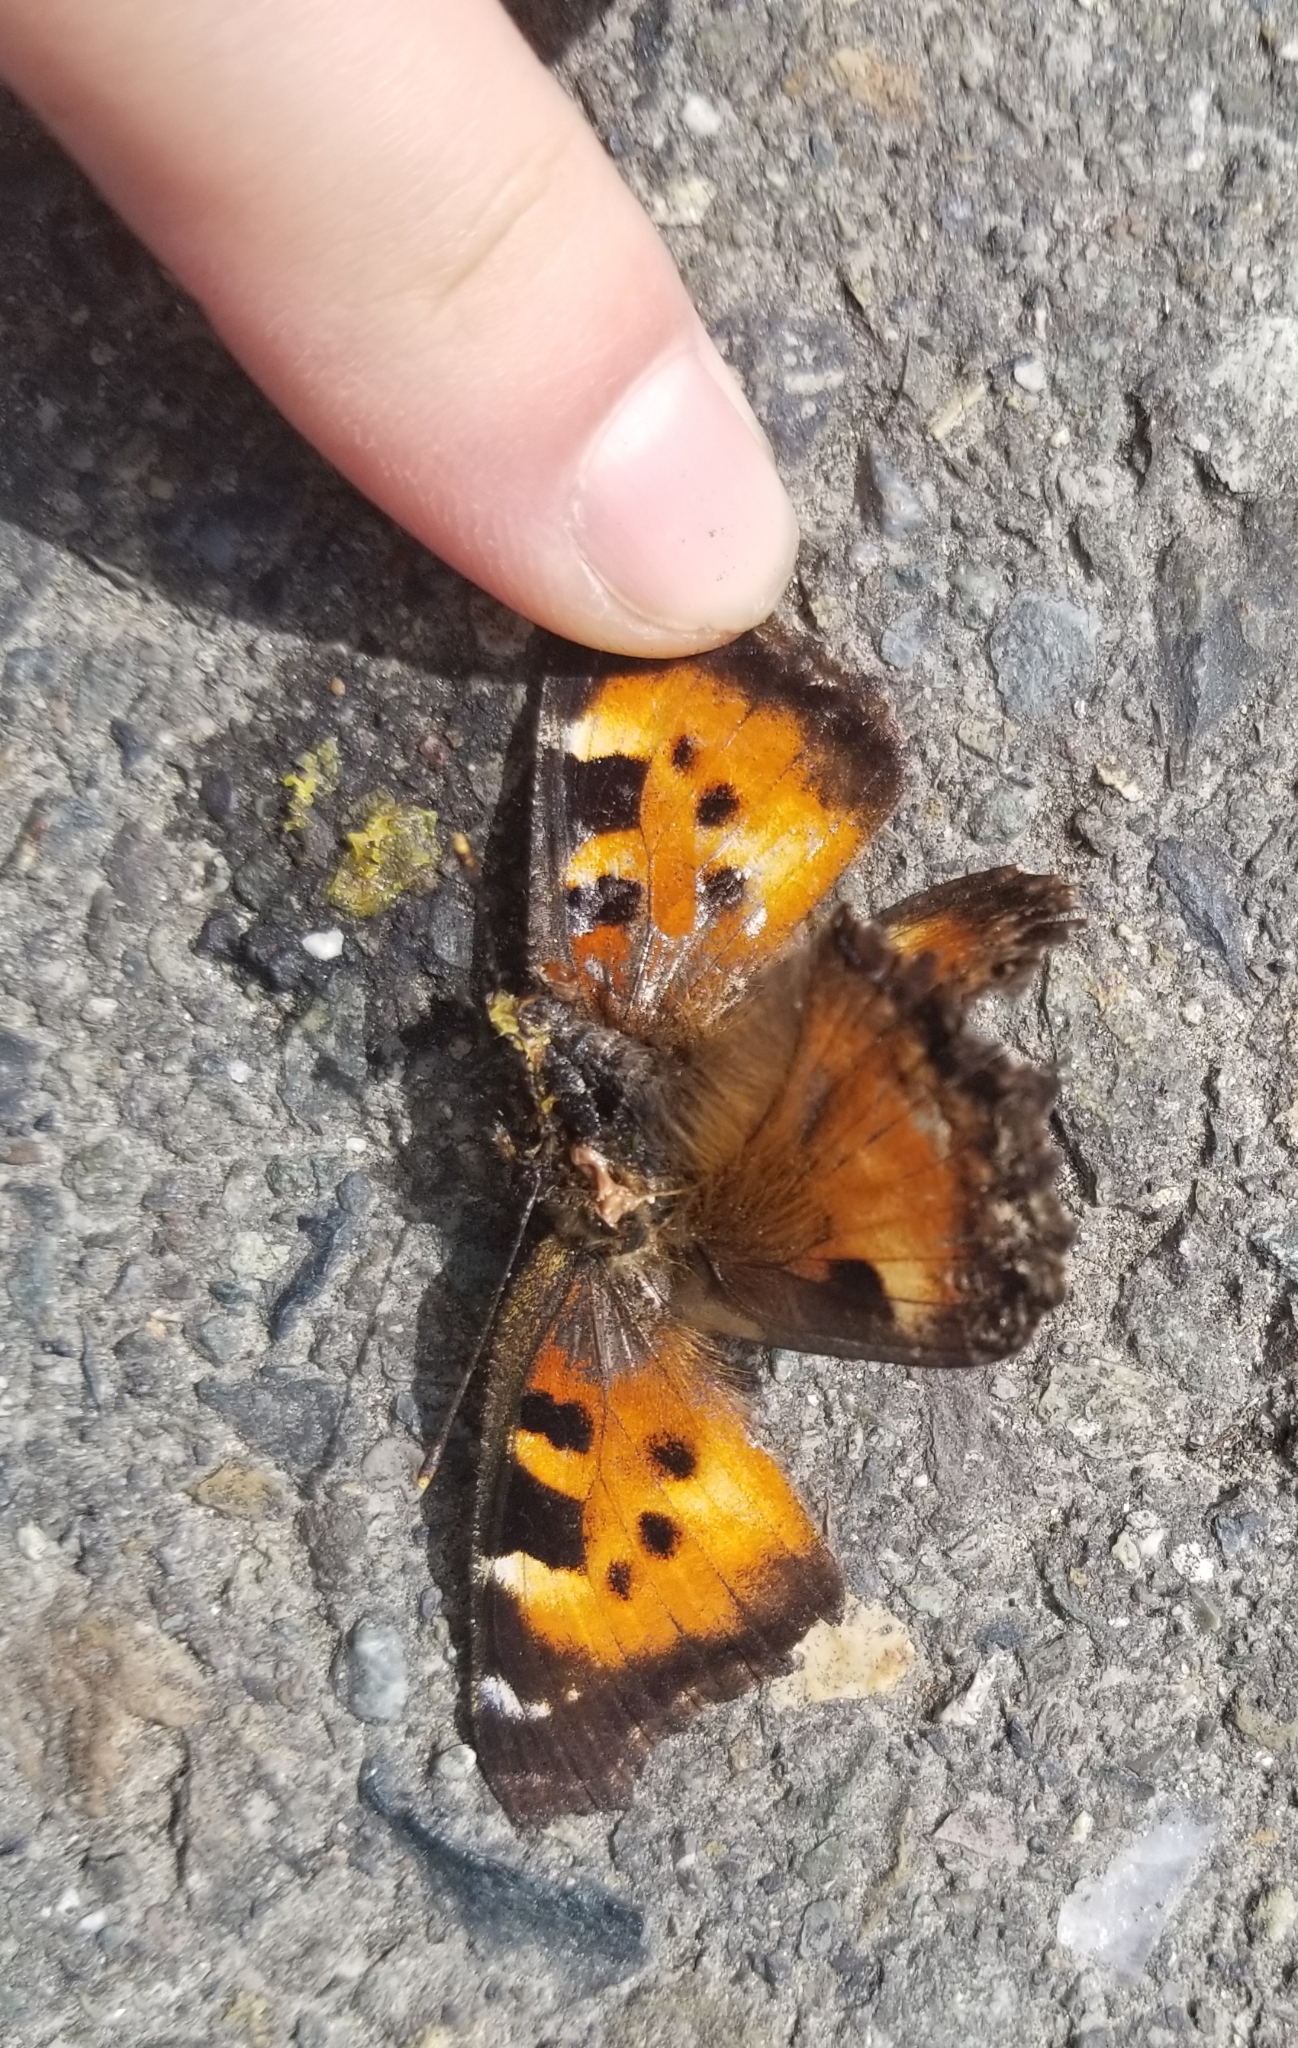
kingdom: Animalia
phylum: Arthropoda
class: Insecta
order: Lepidoptera
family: Nymphalidae
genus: Nymphalis
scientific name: Nymphalis californica
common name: California tortoiseshell
